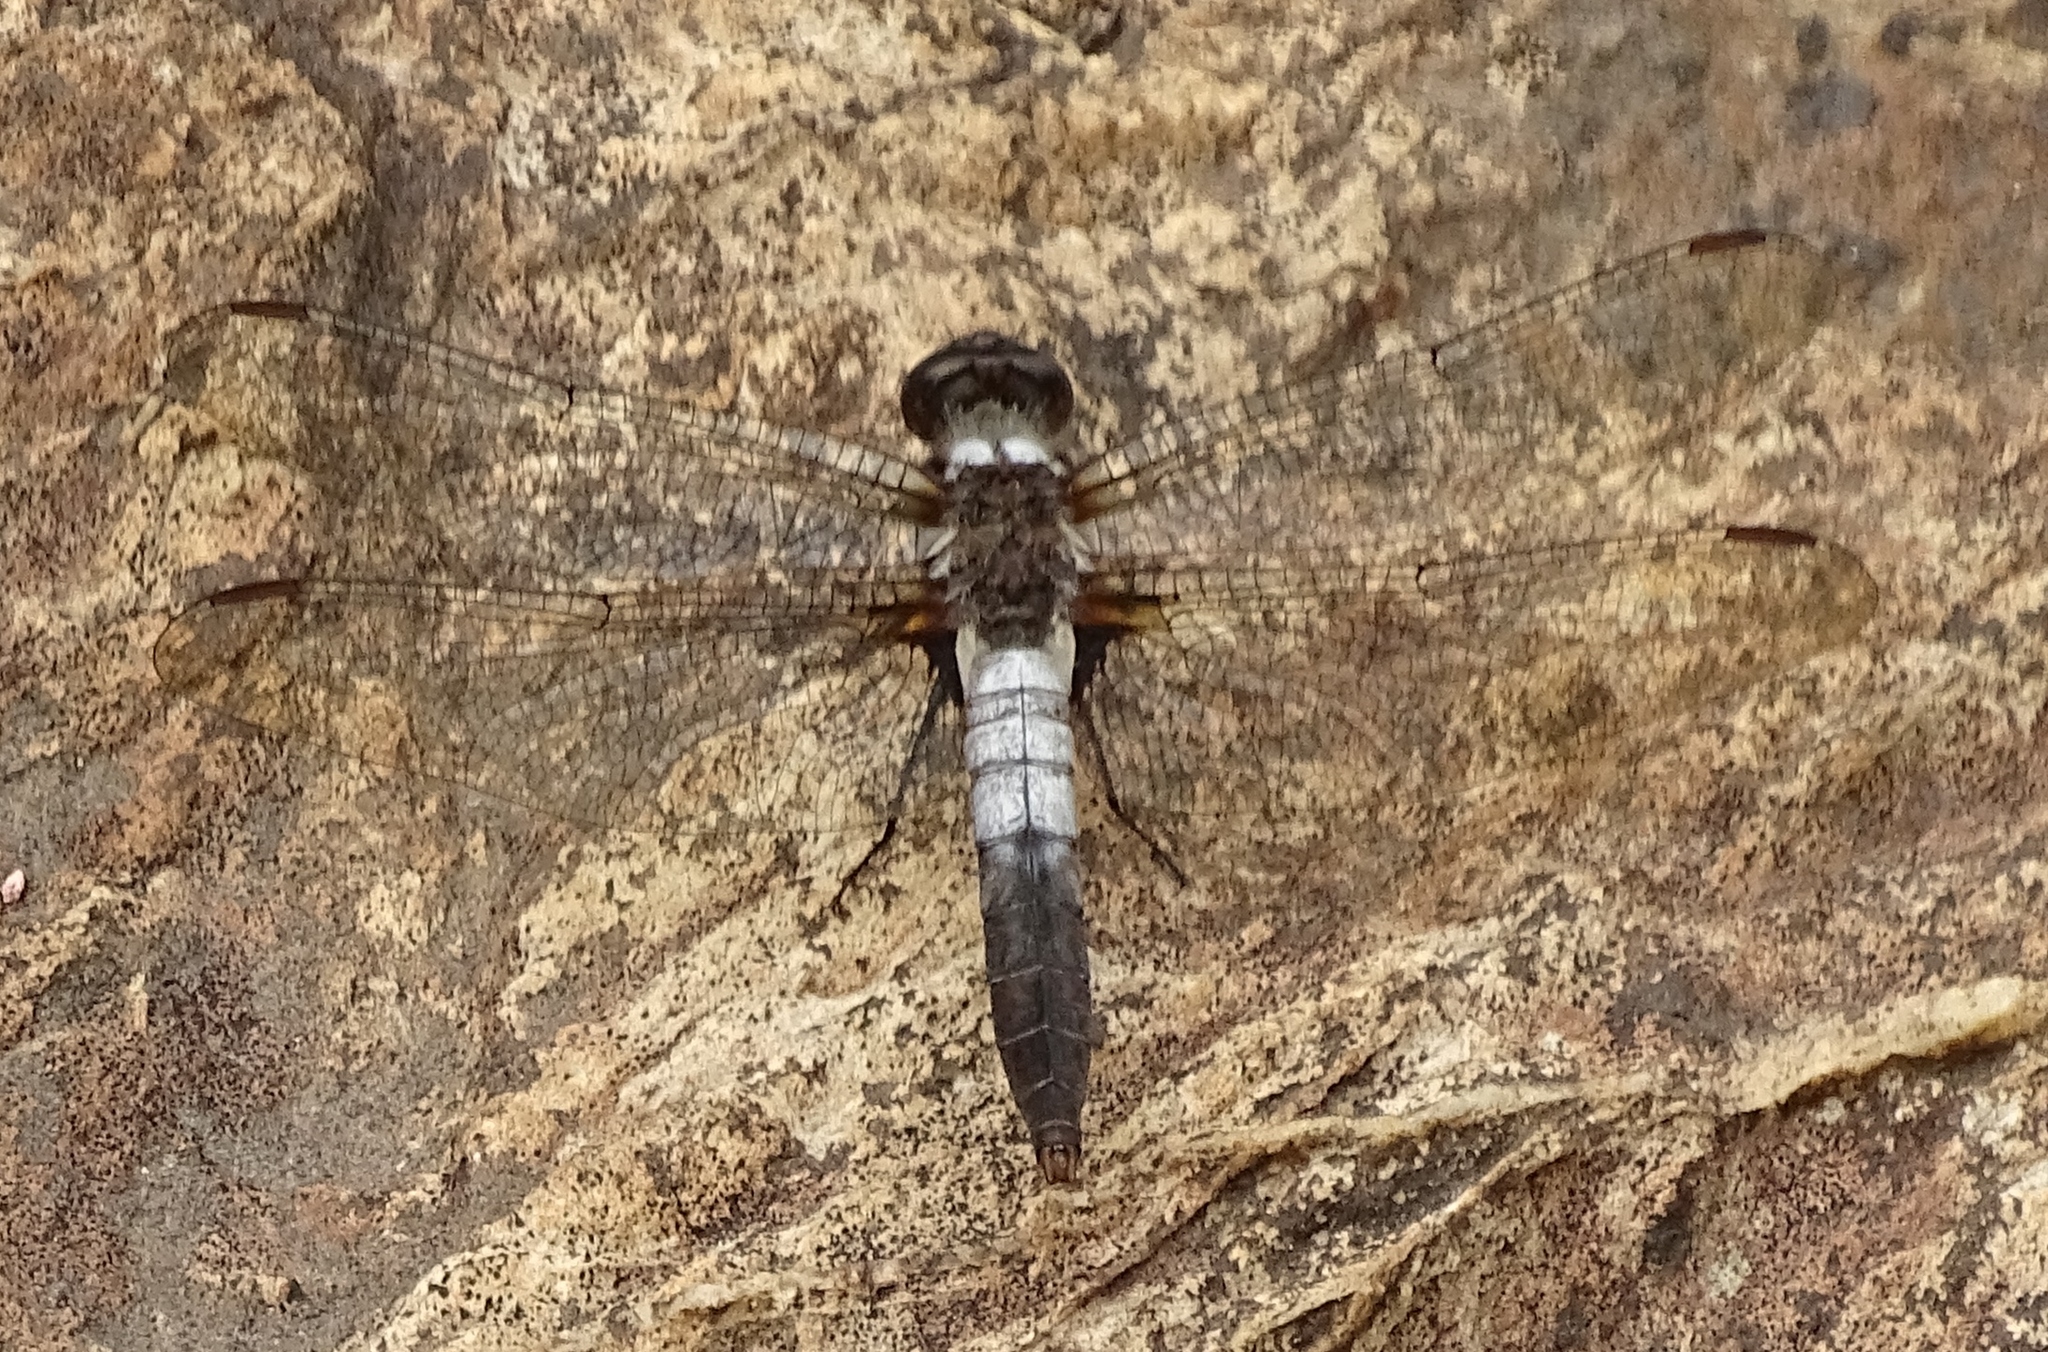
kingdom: Animalia
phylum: Arthropoda
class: Insecta
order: Odonata
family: Libellulidae
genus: Ladona
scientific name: Ladona julia
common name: Chalk-fronted corporal
